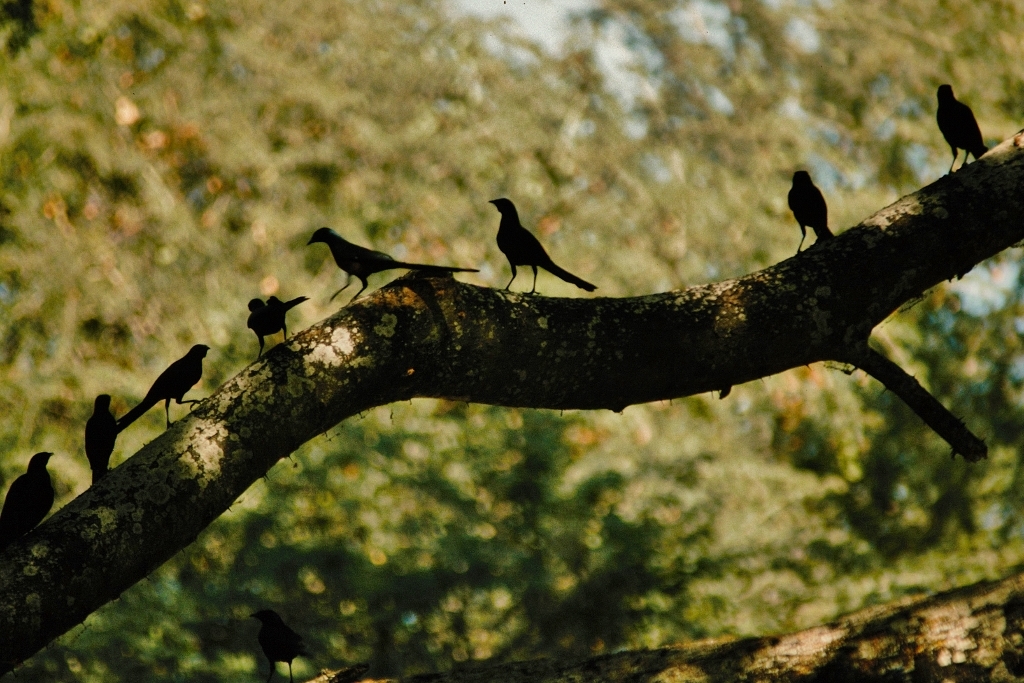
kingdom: Animalia
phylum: Chordata
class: Aves
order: Passeriformes
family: Sturnidae
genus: Lamprotornis
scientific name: Lamprotornis mevesii
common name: Meves's starling
